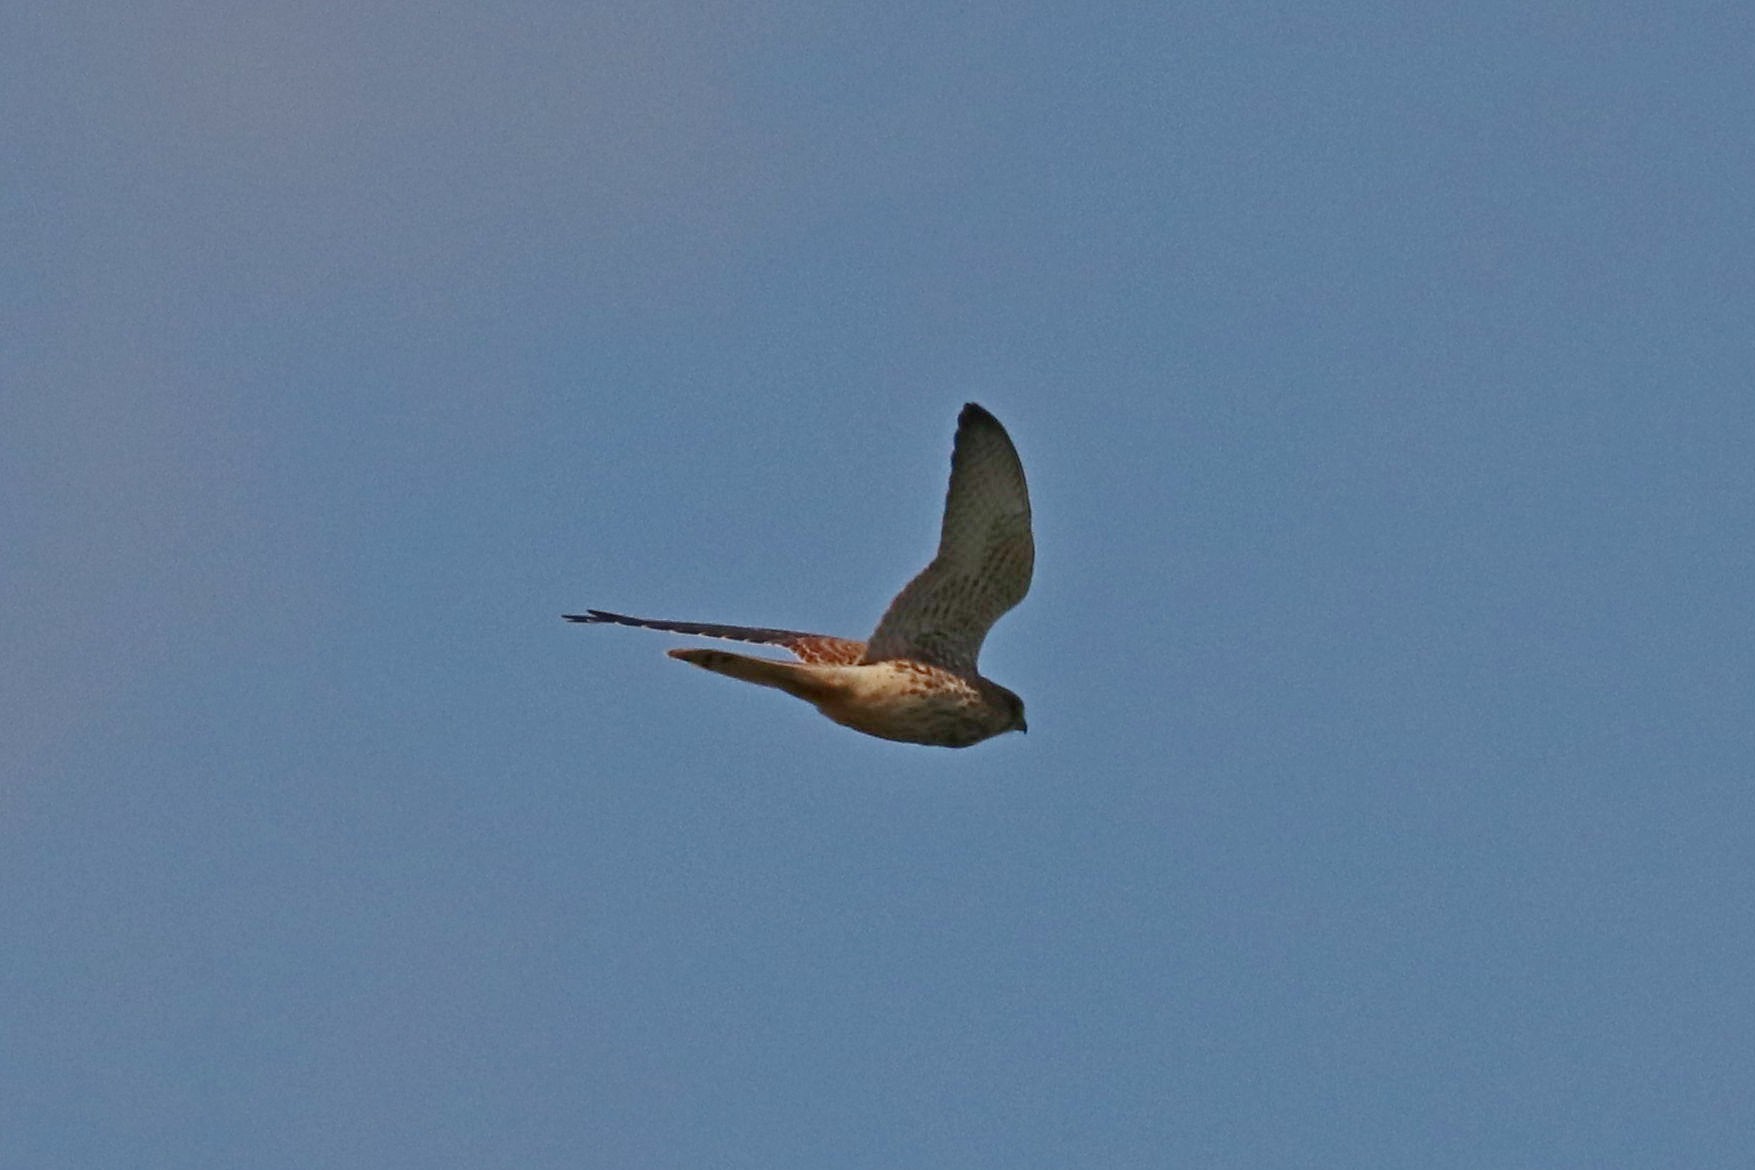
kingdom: Animalia
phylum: Chordata
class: Aves
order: Falconiformes
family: Falconidae
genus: Falco
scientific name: Falco tinnunculus
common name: Common kestrel
